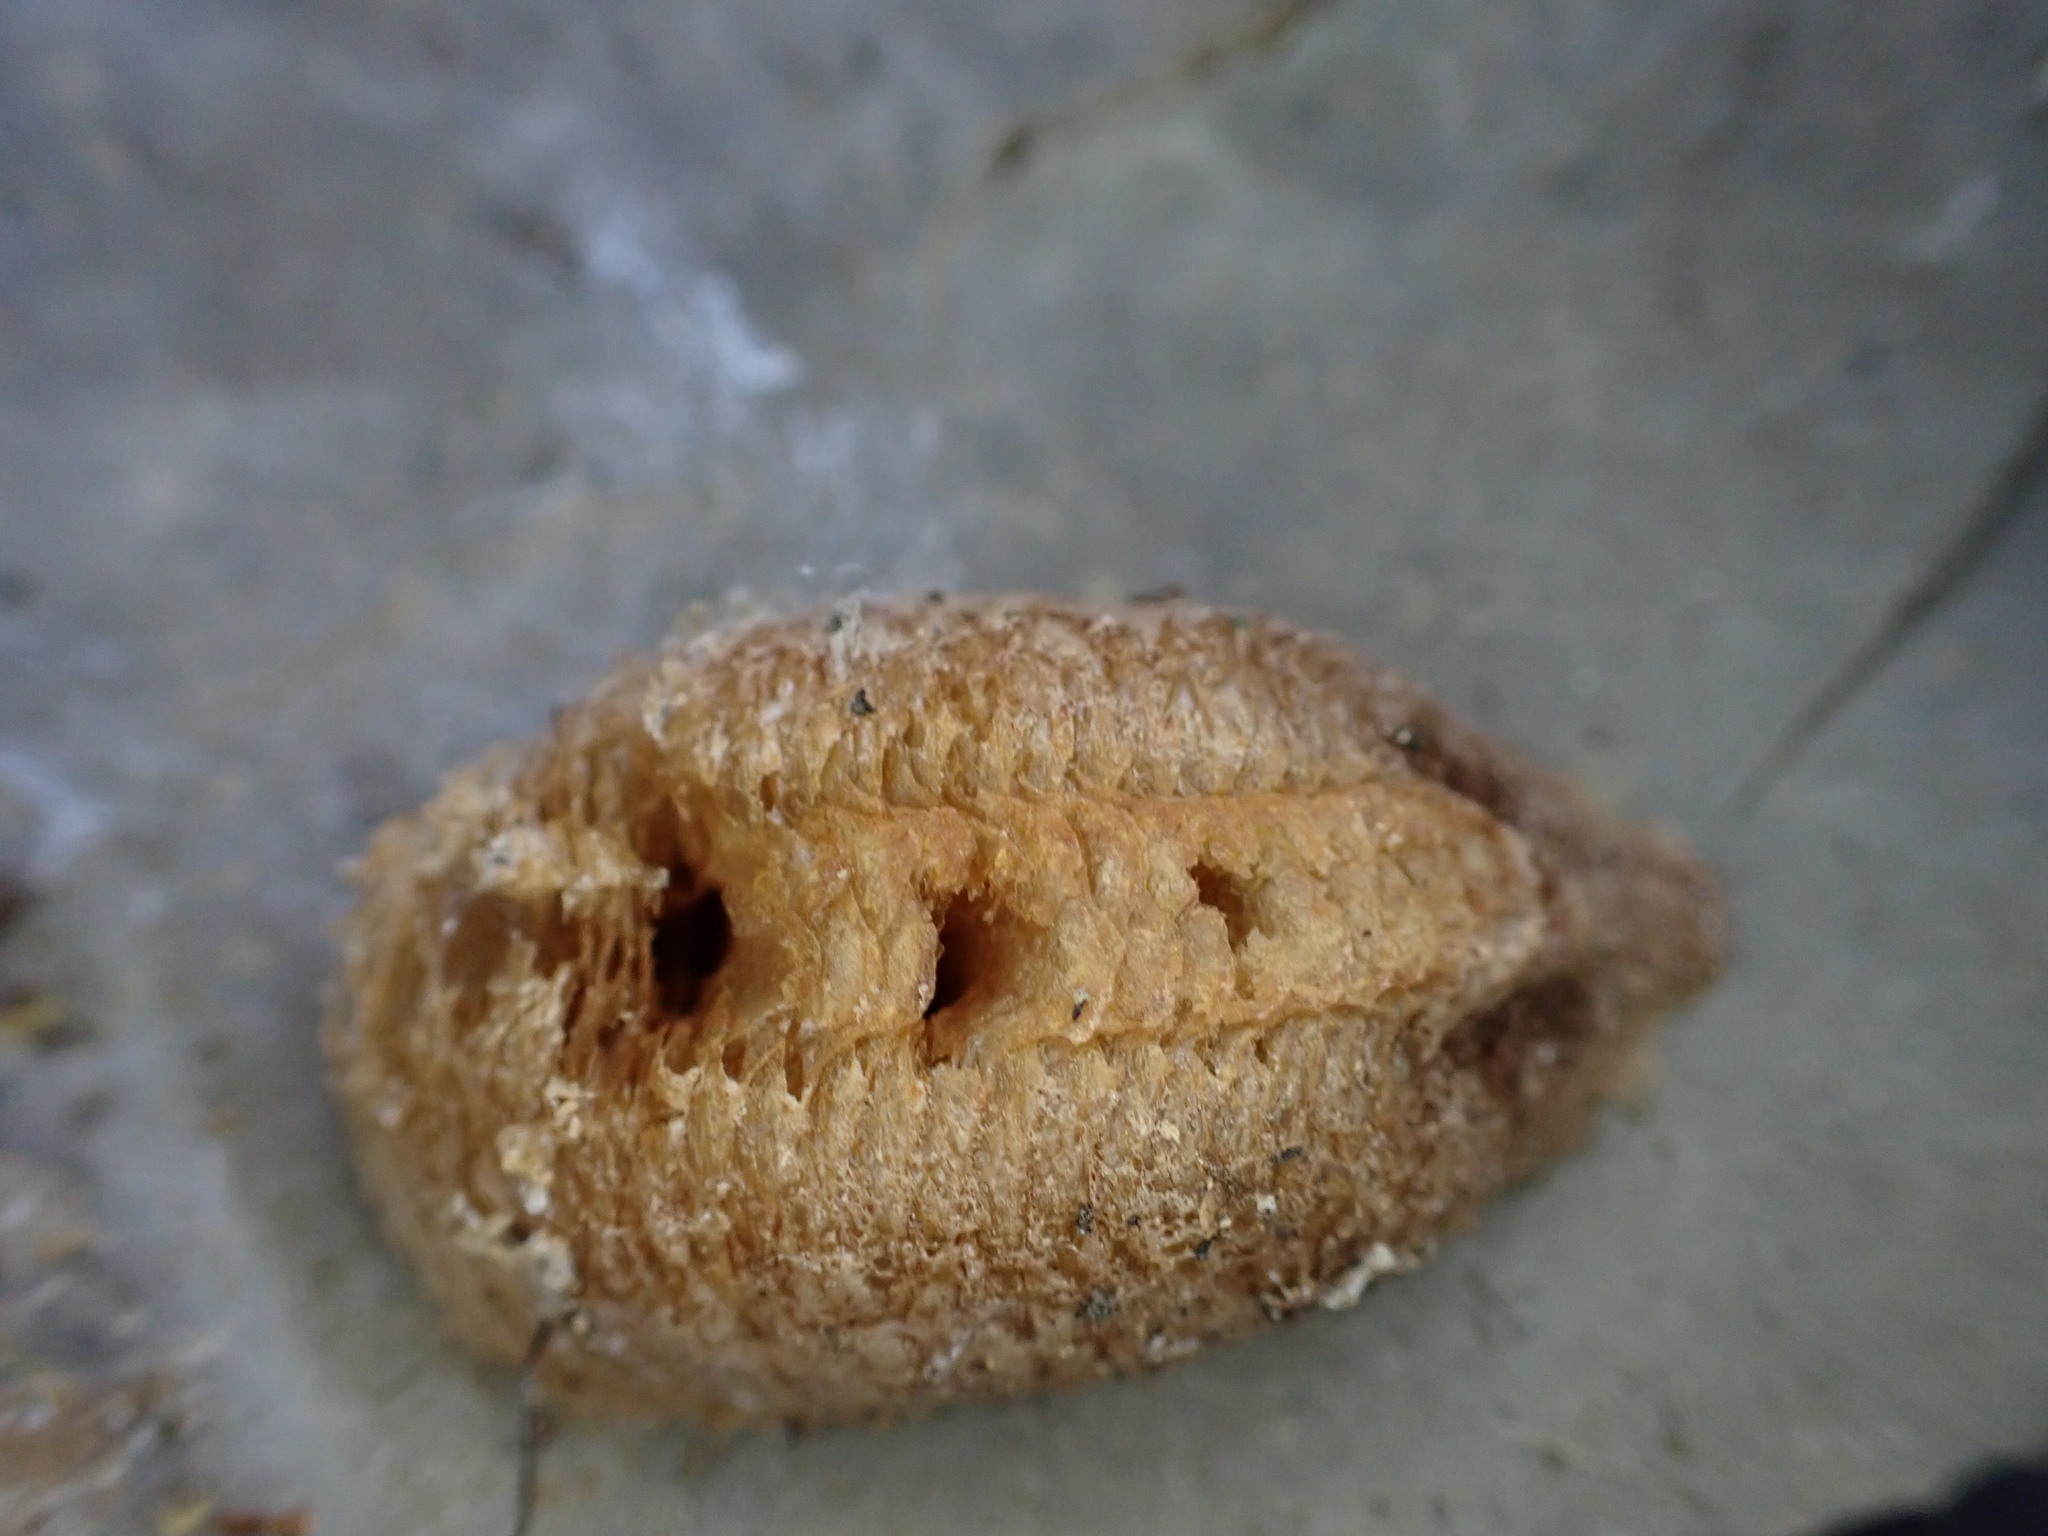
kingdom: Animalia
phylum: Arthropoda
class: Insecta
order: Mantodea
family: Mantidae
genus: Mantis
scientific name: Mantis religiosa
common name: Praying mantis
